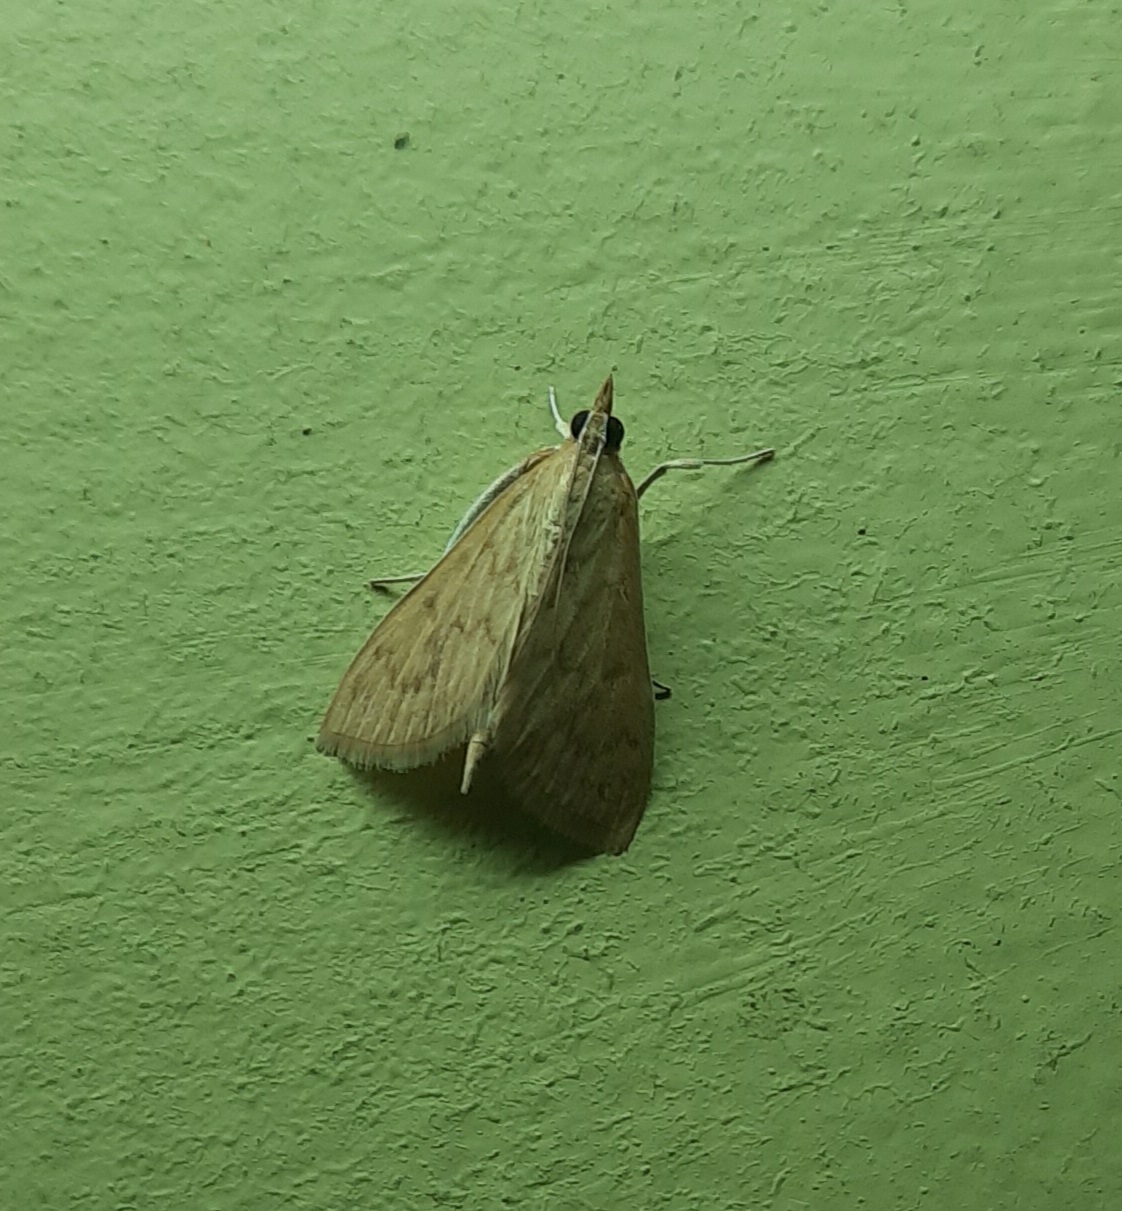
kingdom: Animalia
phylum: Arthropoda
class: Insecta
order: Lepidoptera
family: Crambidae
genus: Paliga
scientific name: Paliga damastesalis
